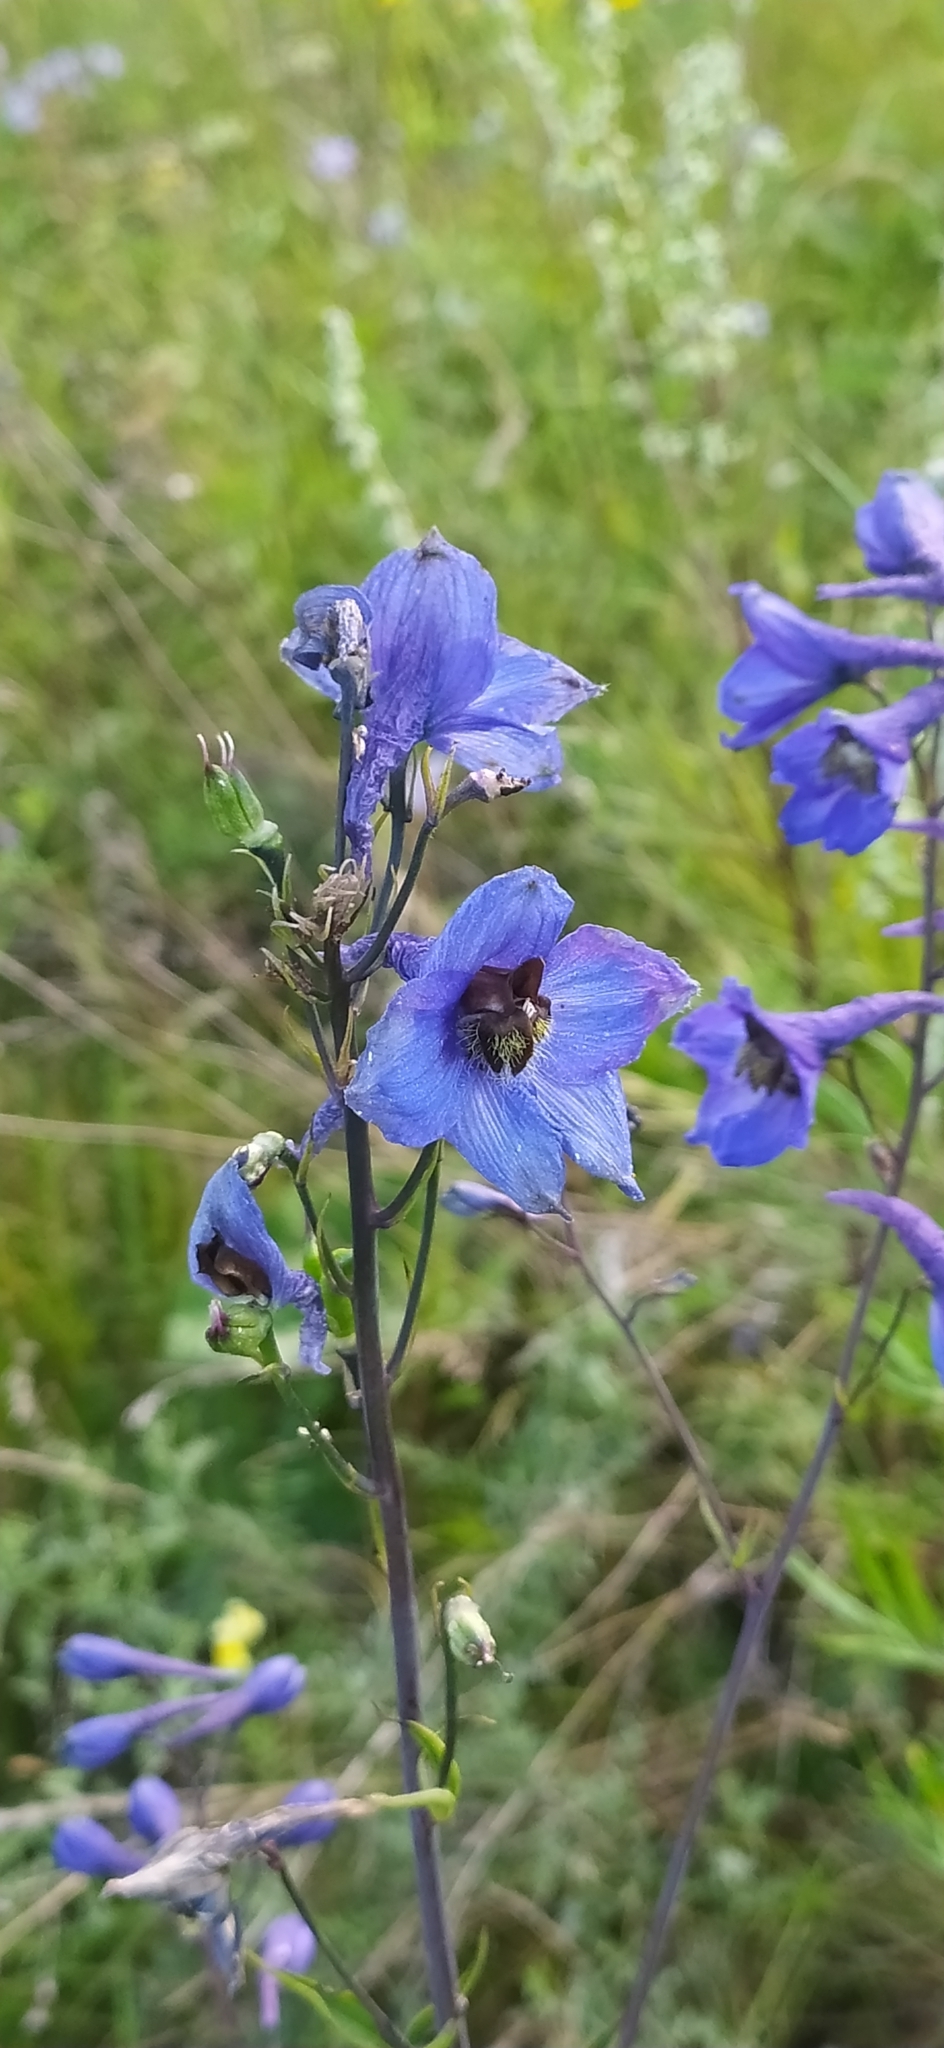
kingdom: Plantae
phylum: Tracheophyta
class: Magnoliopsida
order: Ranunculales
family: Ranunculaceae
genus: Delphinium
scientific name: Delphinium elatum
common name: Candle larkspur
